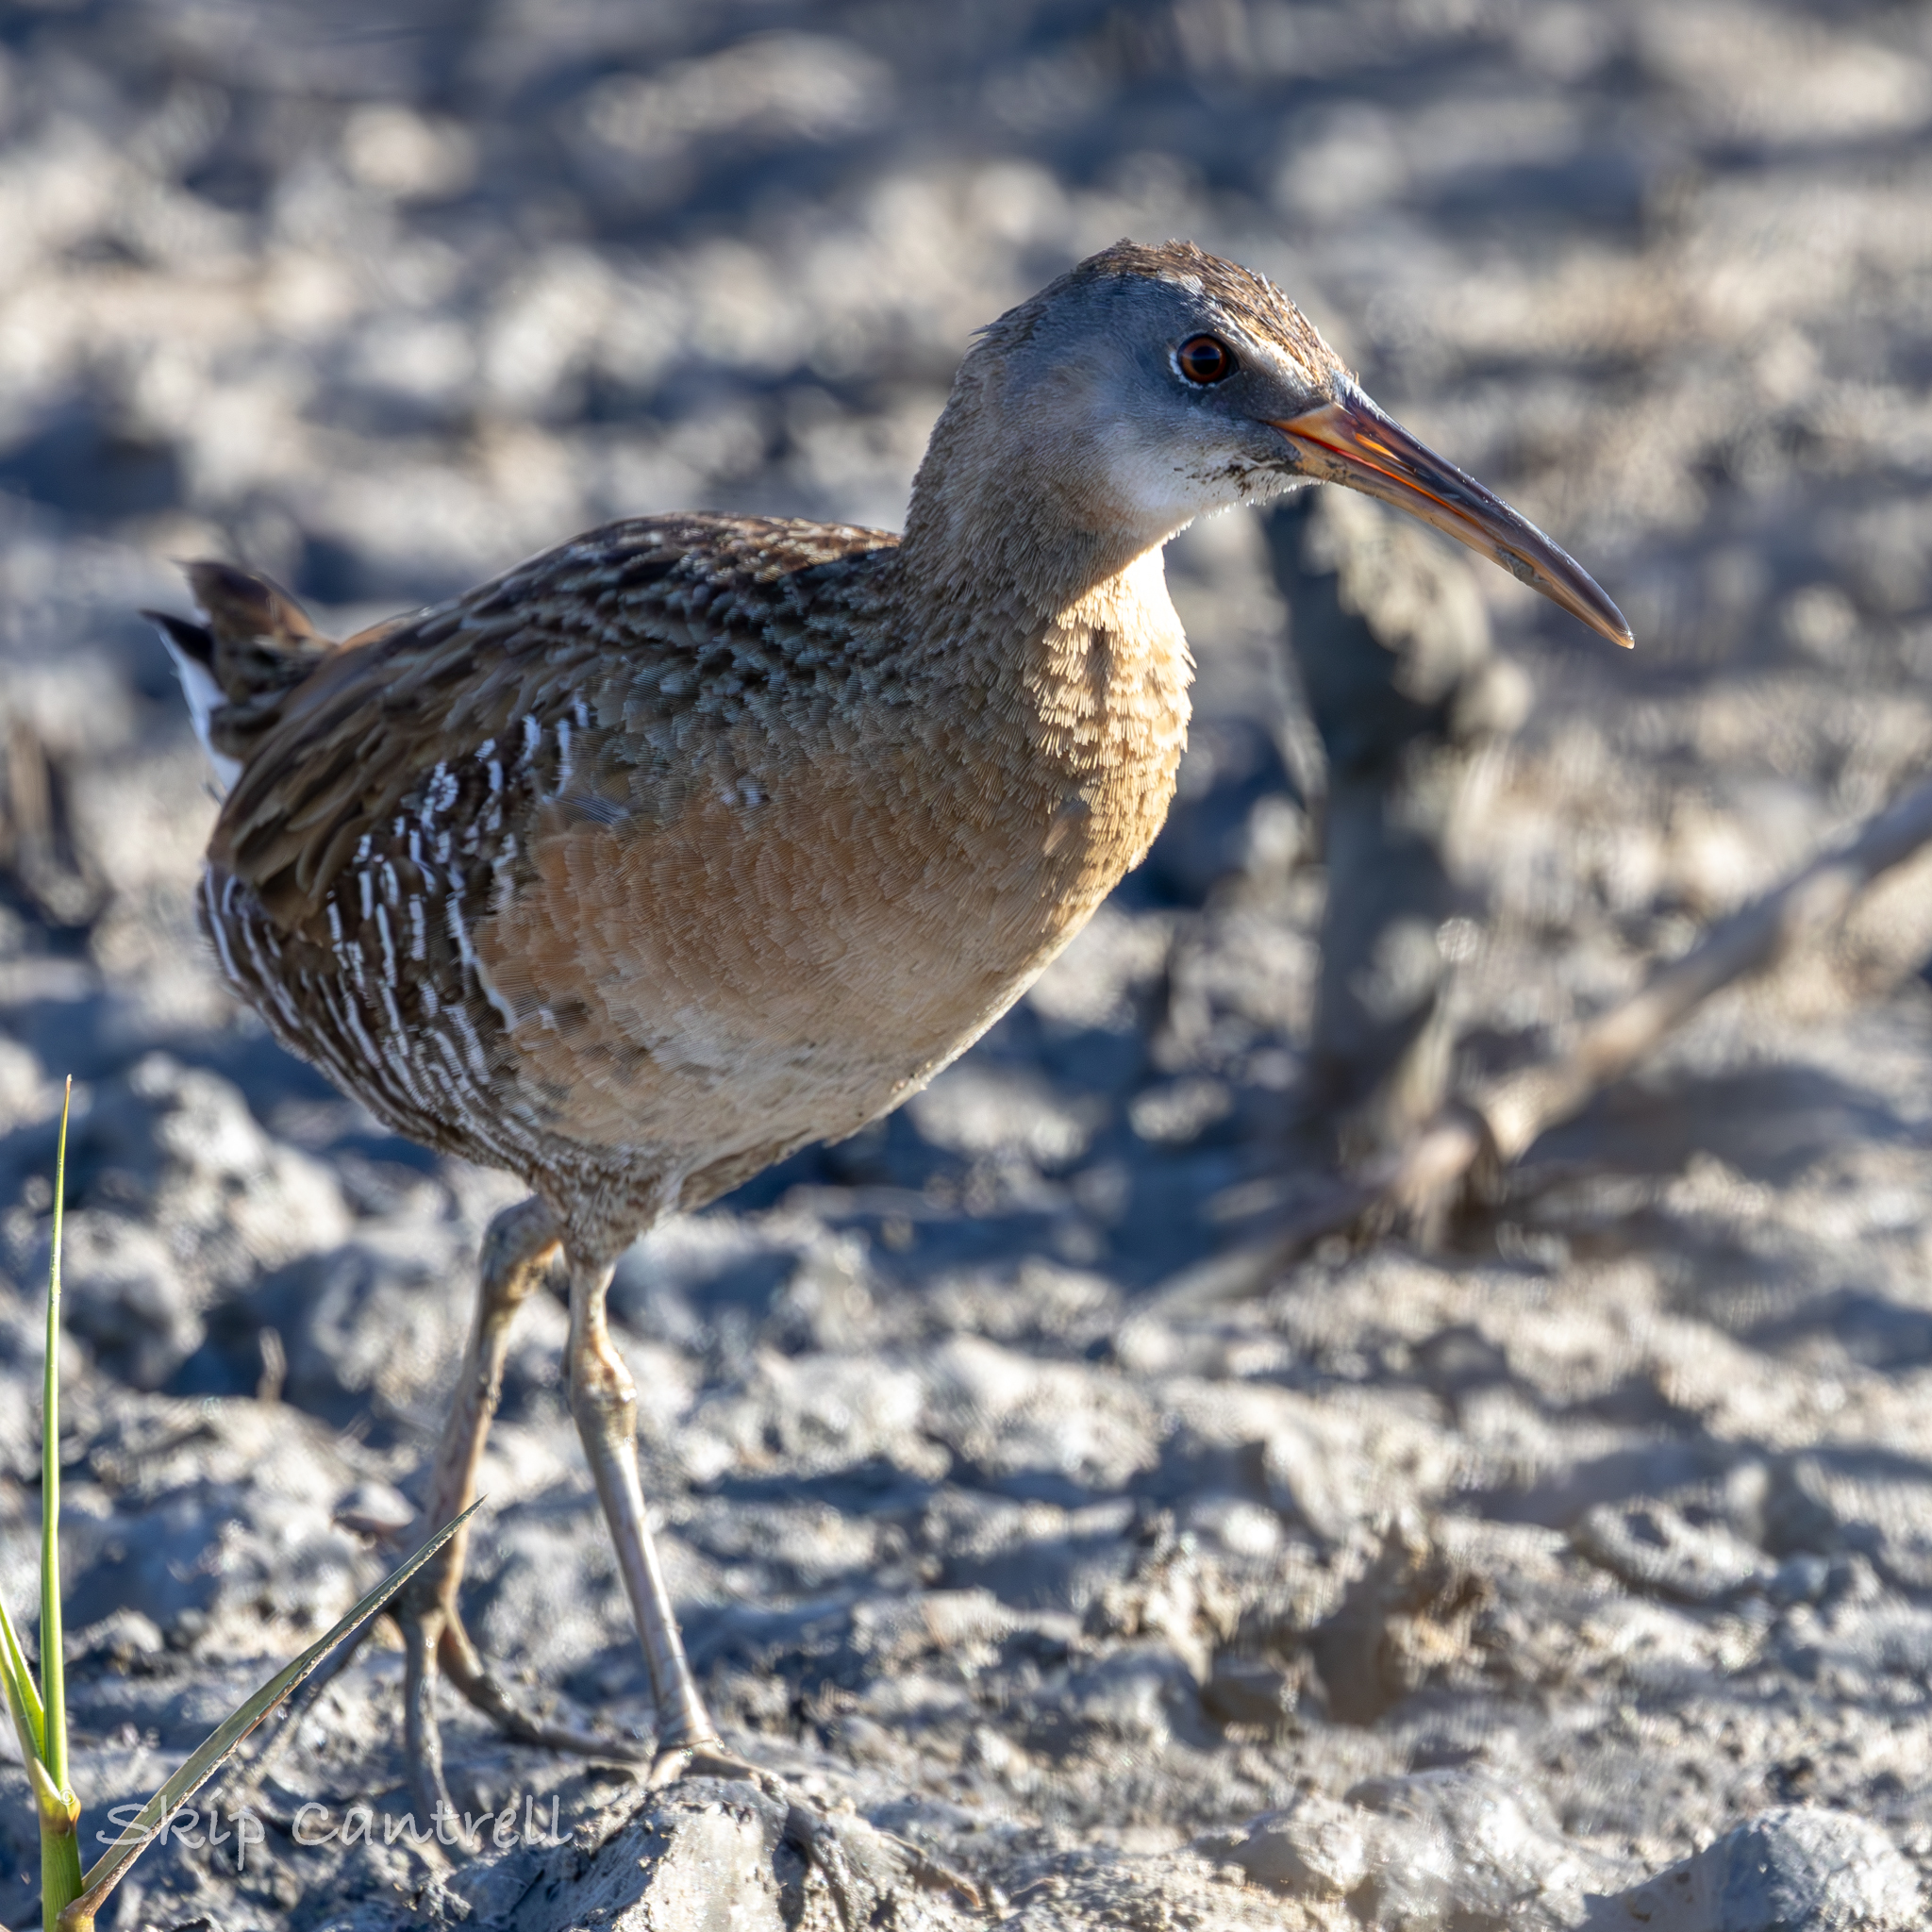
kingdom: Animalia
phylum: Chordata
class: Aves
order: Gruiformes
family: Rallidae
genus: Rallus
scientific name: Rallus crepitans
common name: Clapper rail
